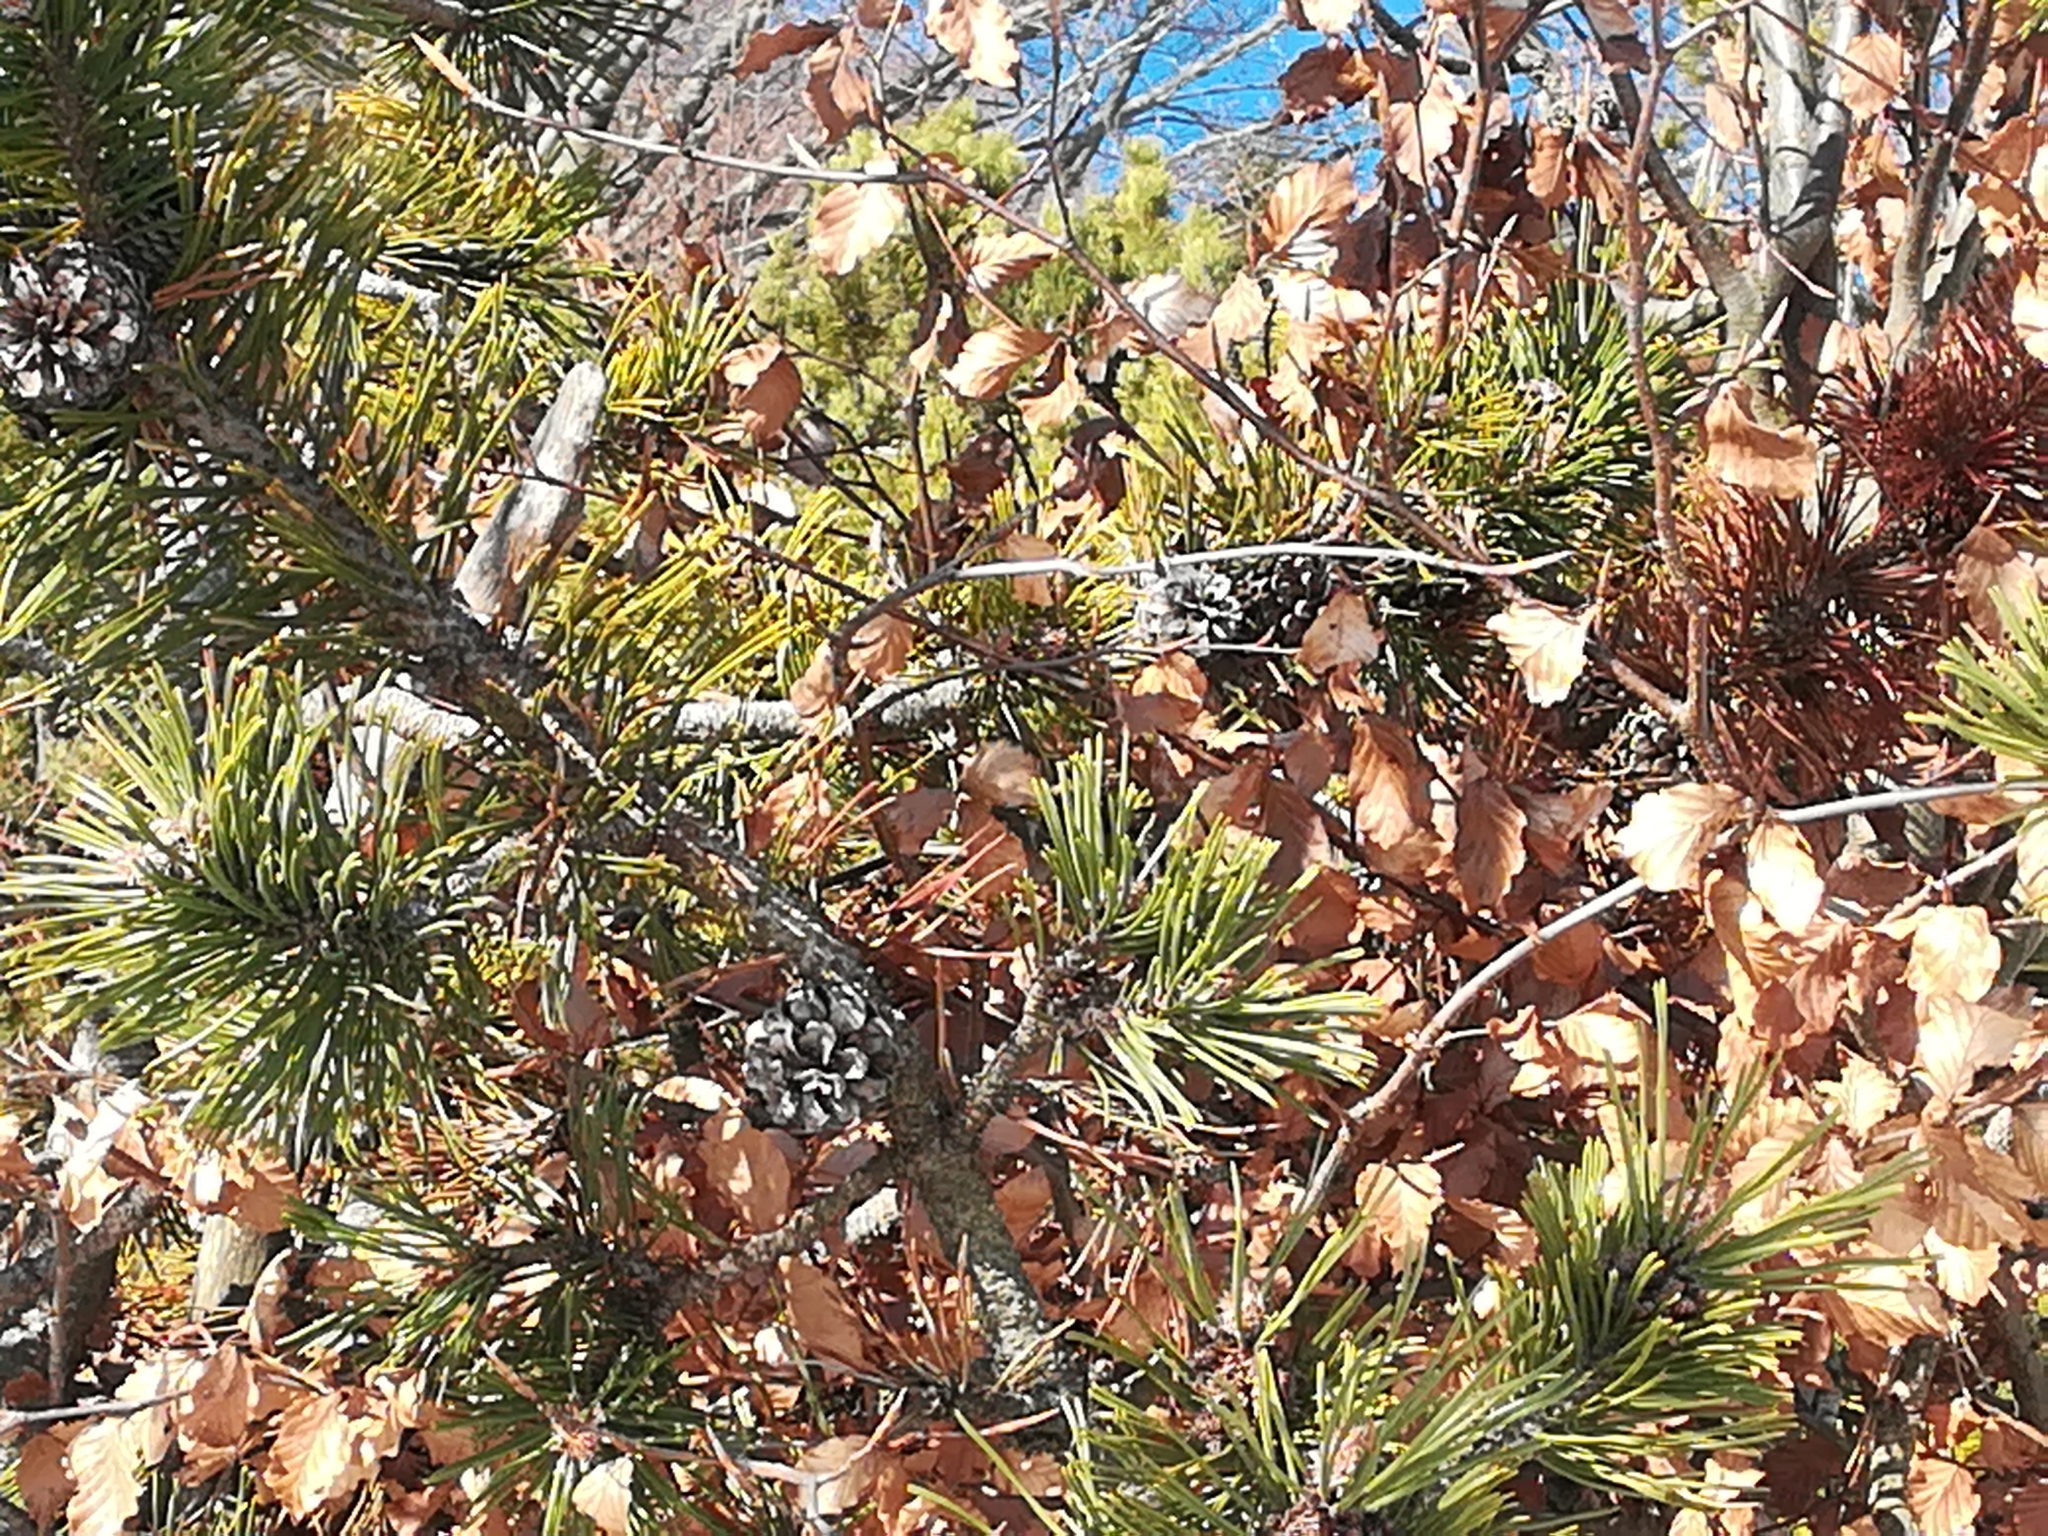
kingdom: Plantae
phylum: Tracheophyta
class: Pinopsida
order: Pinales
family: Pinaceae
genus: Pinus
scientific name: Pinus mugo
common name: Mugo pine
